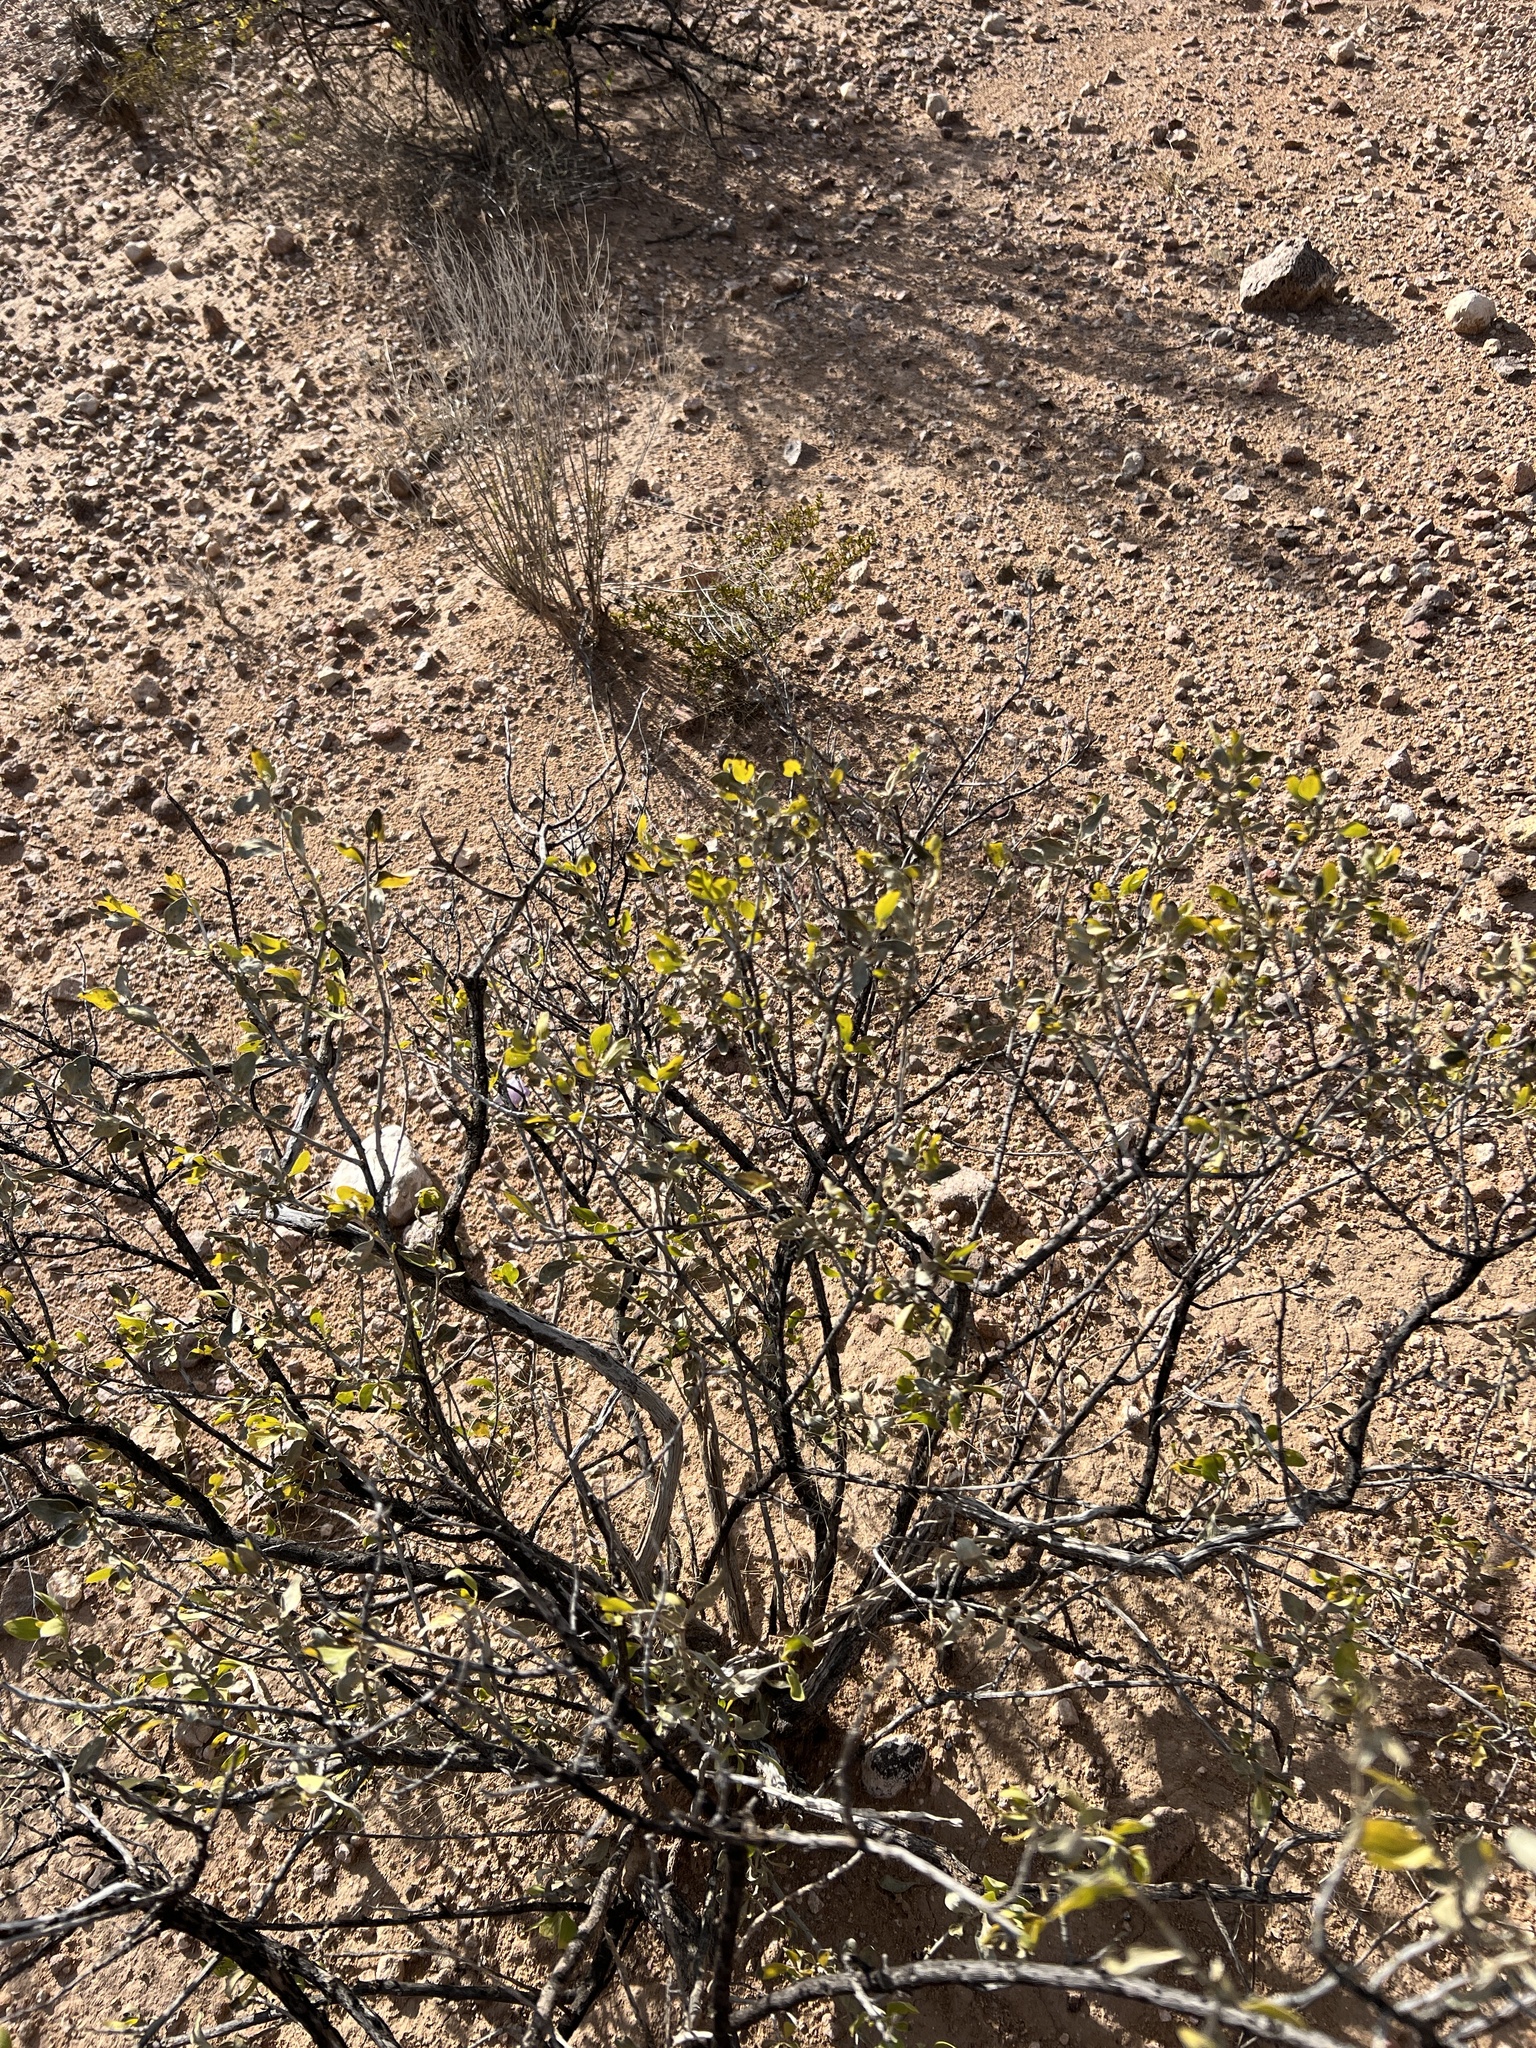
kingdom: Plantae
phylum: Tracheophyta
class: Magnoliopsida
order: Asterales
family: Asteraceae
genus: Flourensia
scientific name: Flourensia cernua
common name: Varnishbush
